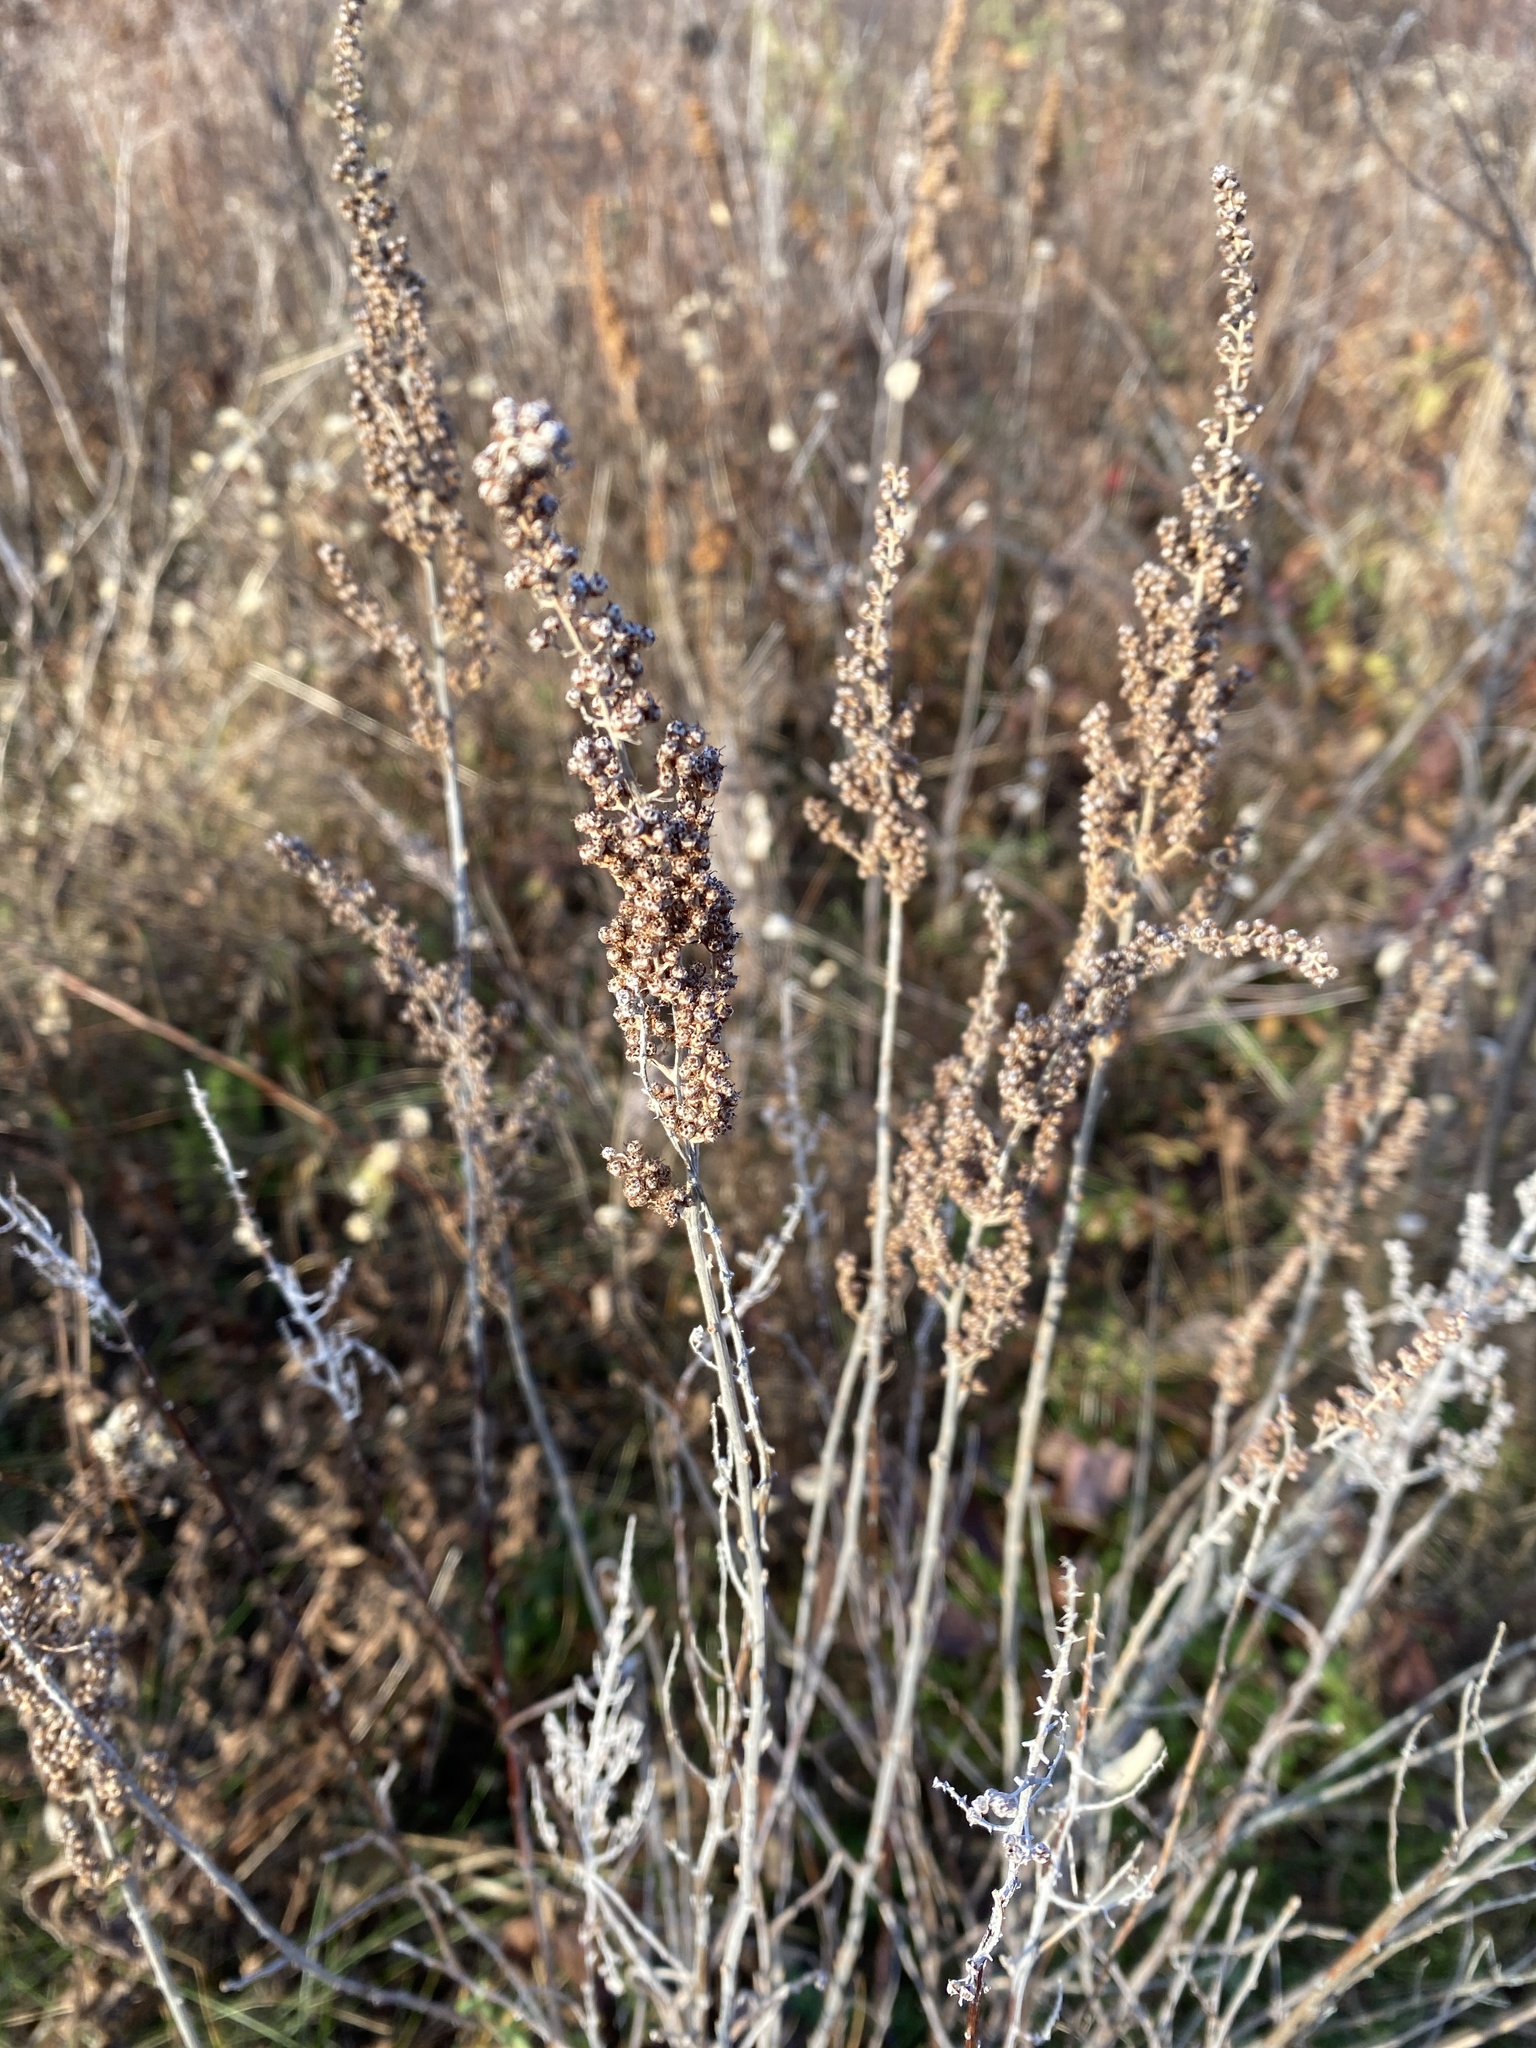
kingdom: Plantae
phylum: Tracheophyta
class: Magnoliopsida
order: Rosales
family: Rosaceae
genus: Spiraea
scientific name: Spiraea tomentosa
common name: Hardhack
